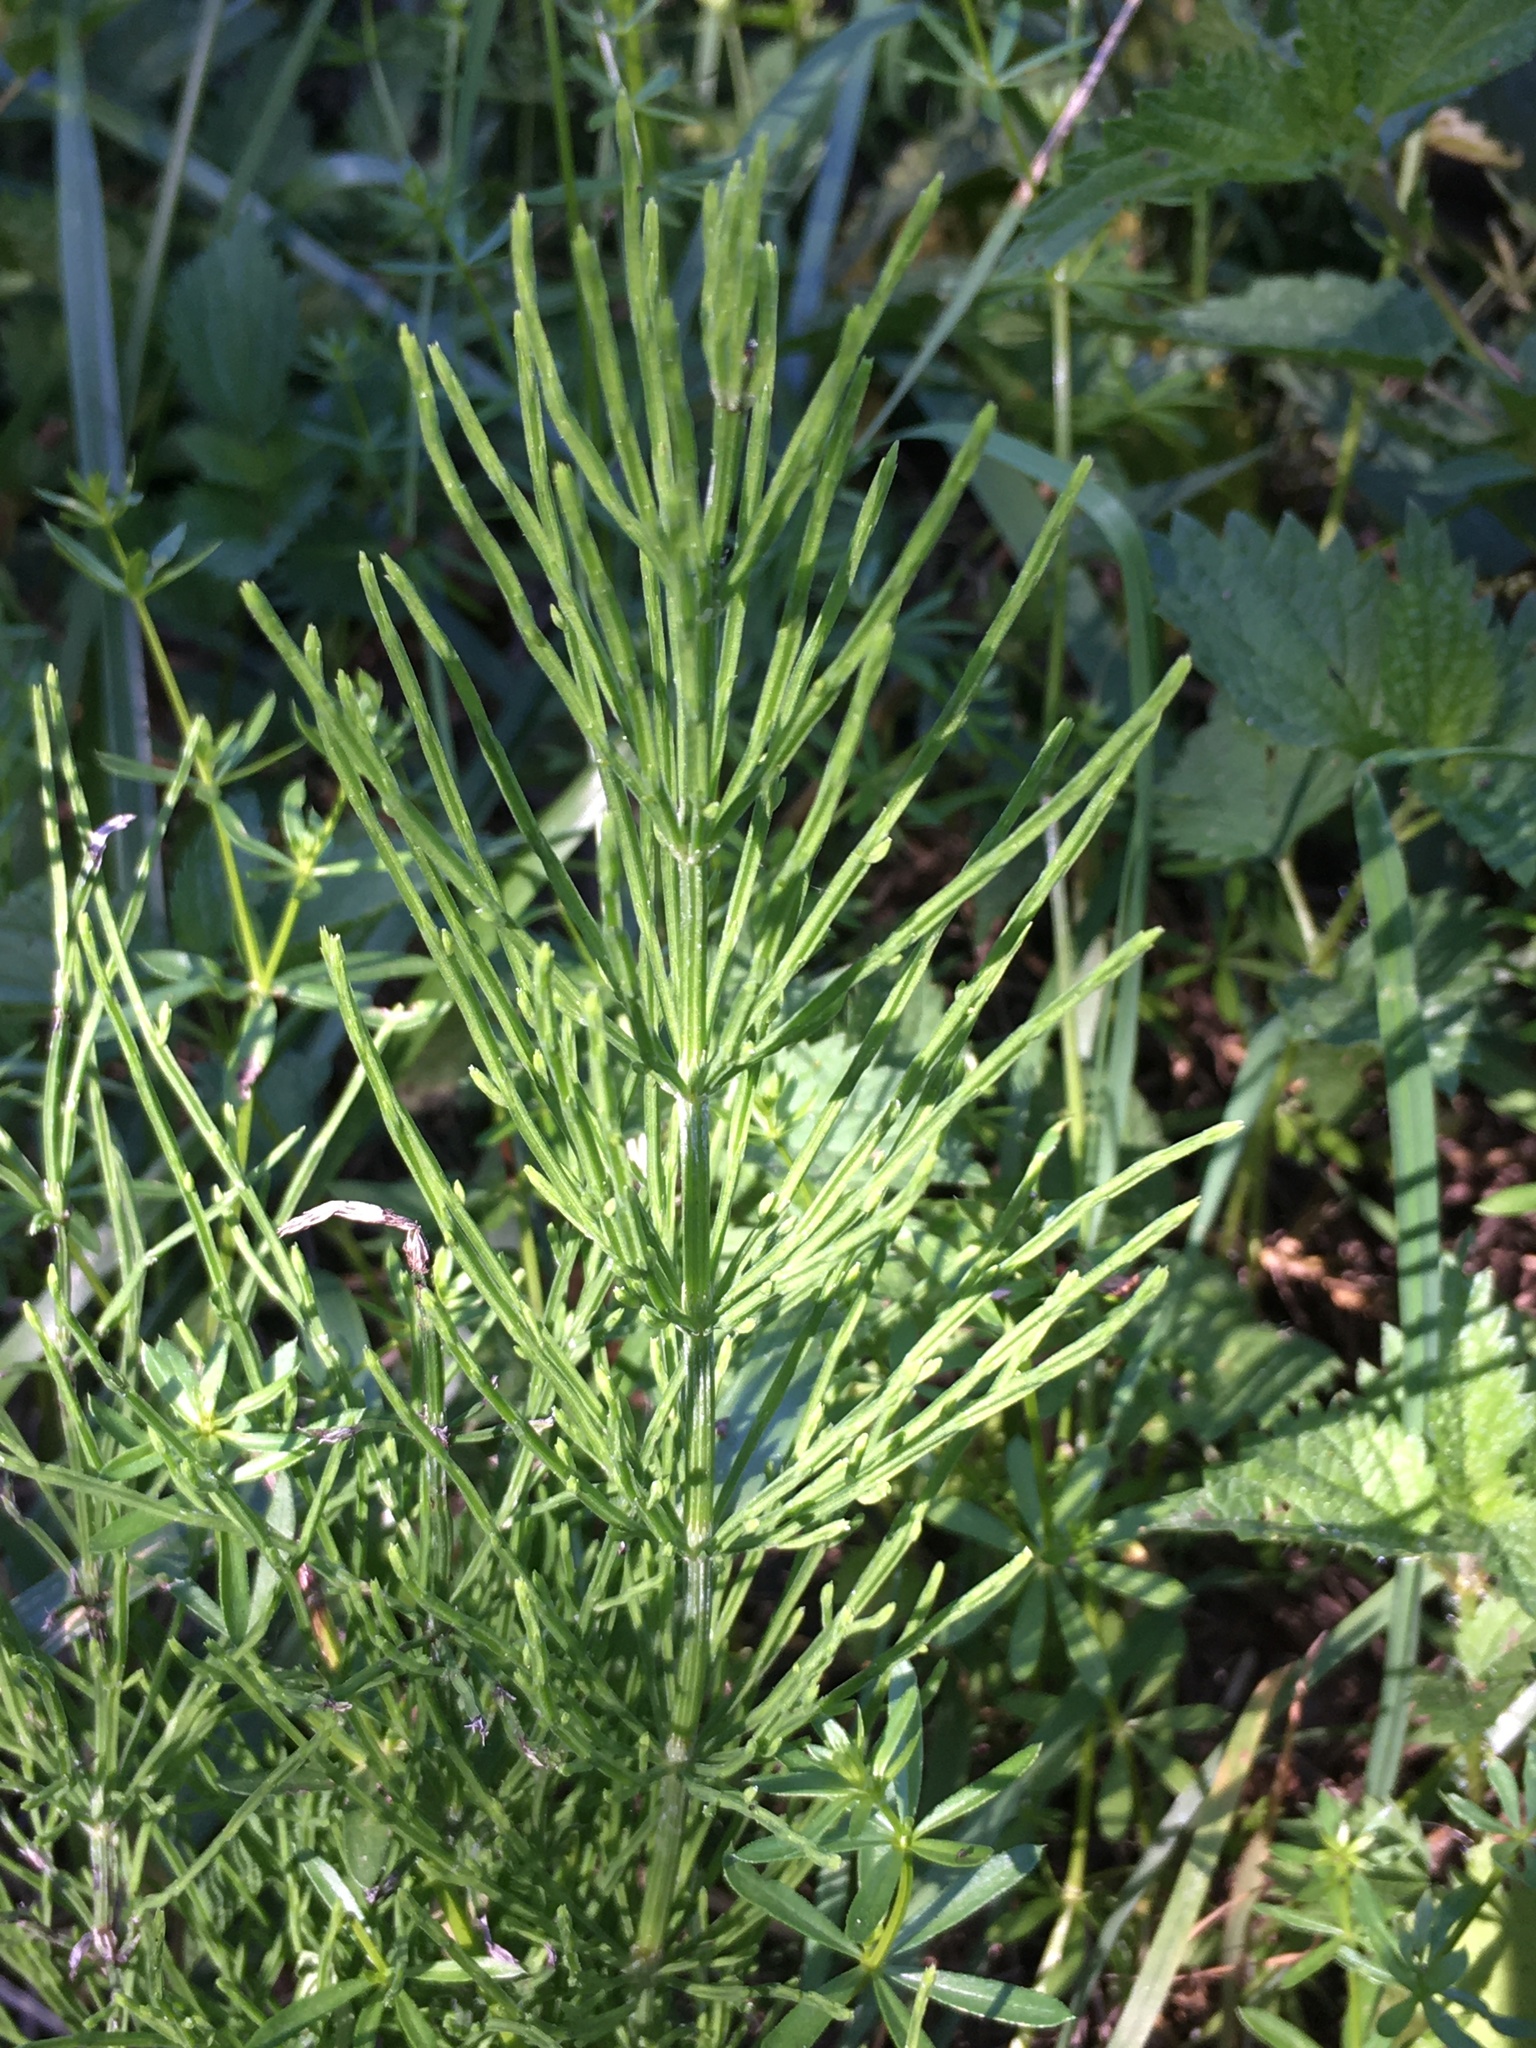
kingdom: Plantae
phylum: Tracheophyta
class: Polypodiopsida
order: Equisetales
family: Equisetaceae
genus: Equisetum
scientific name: Equisetum arvense
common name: Field horsetail
